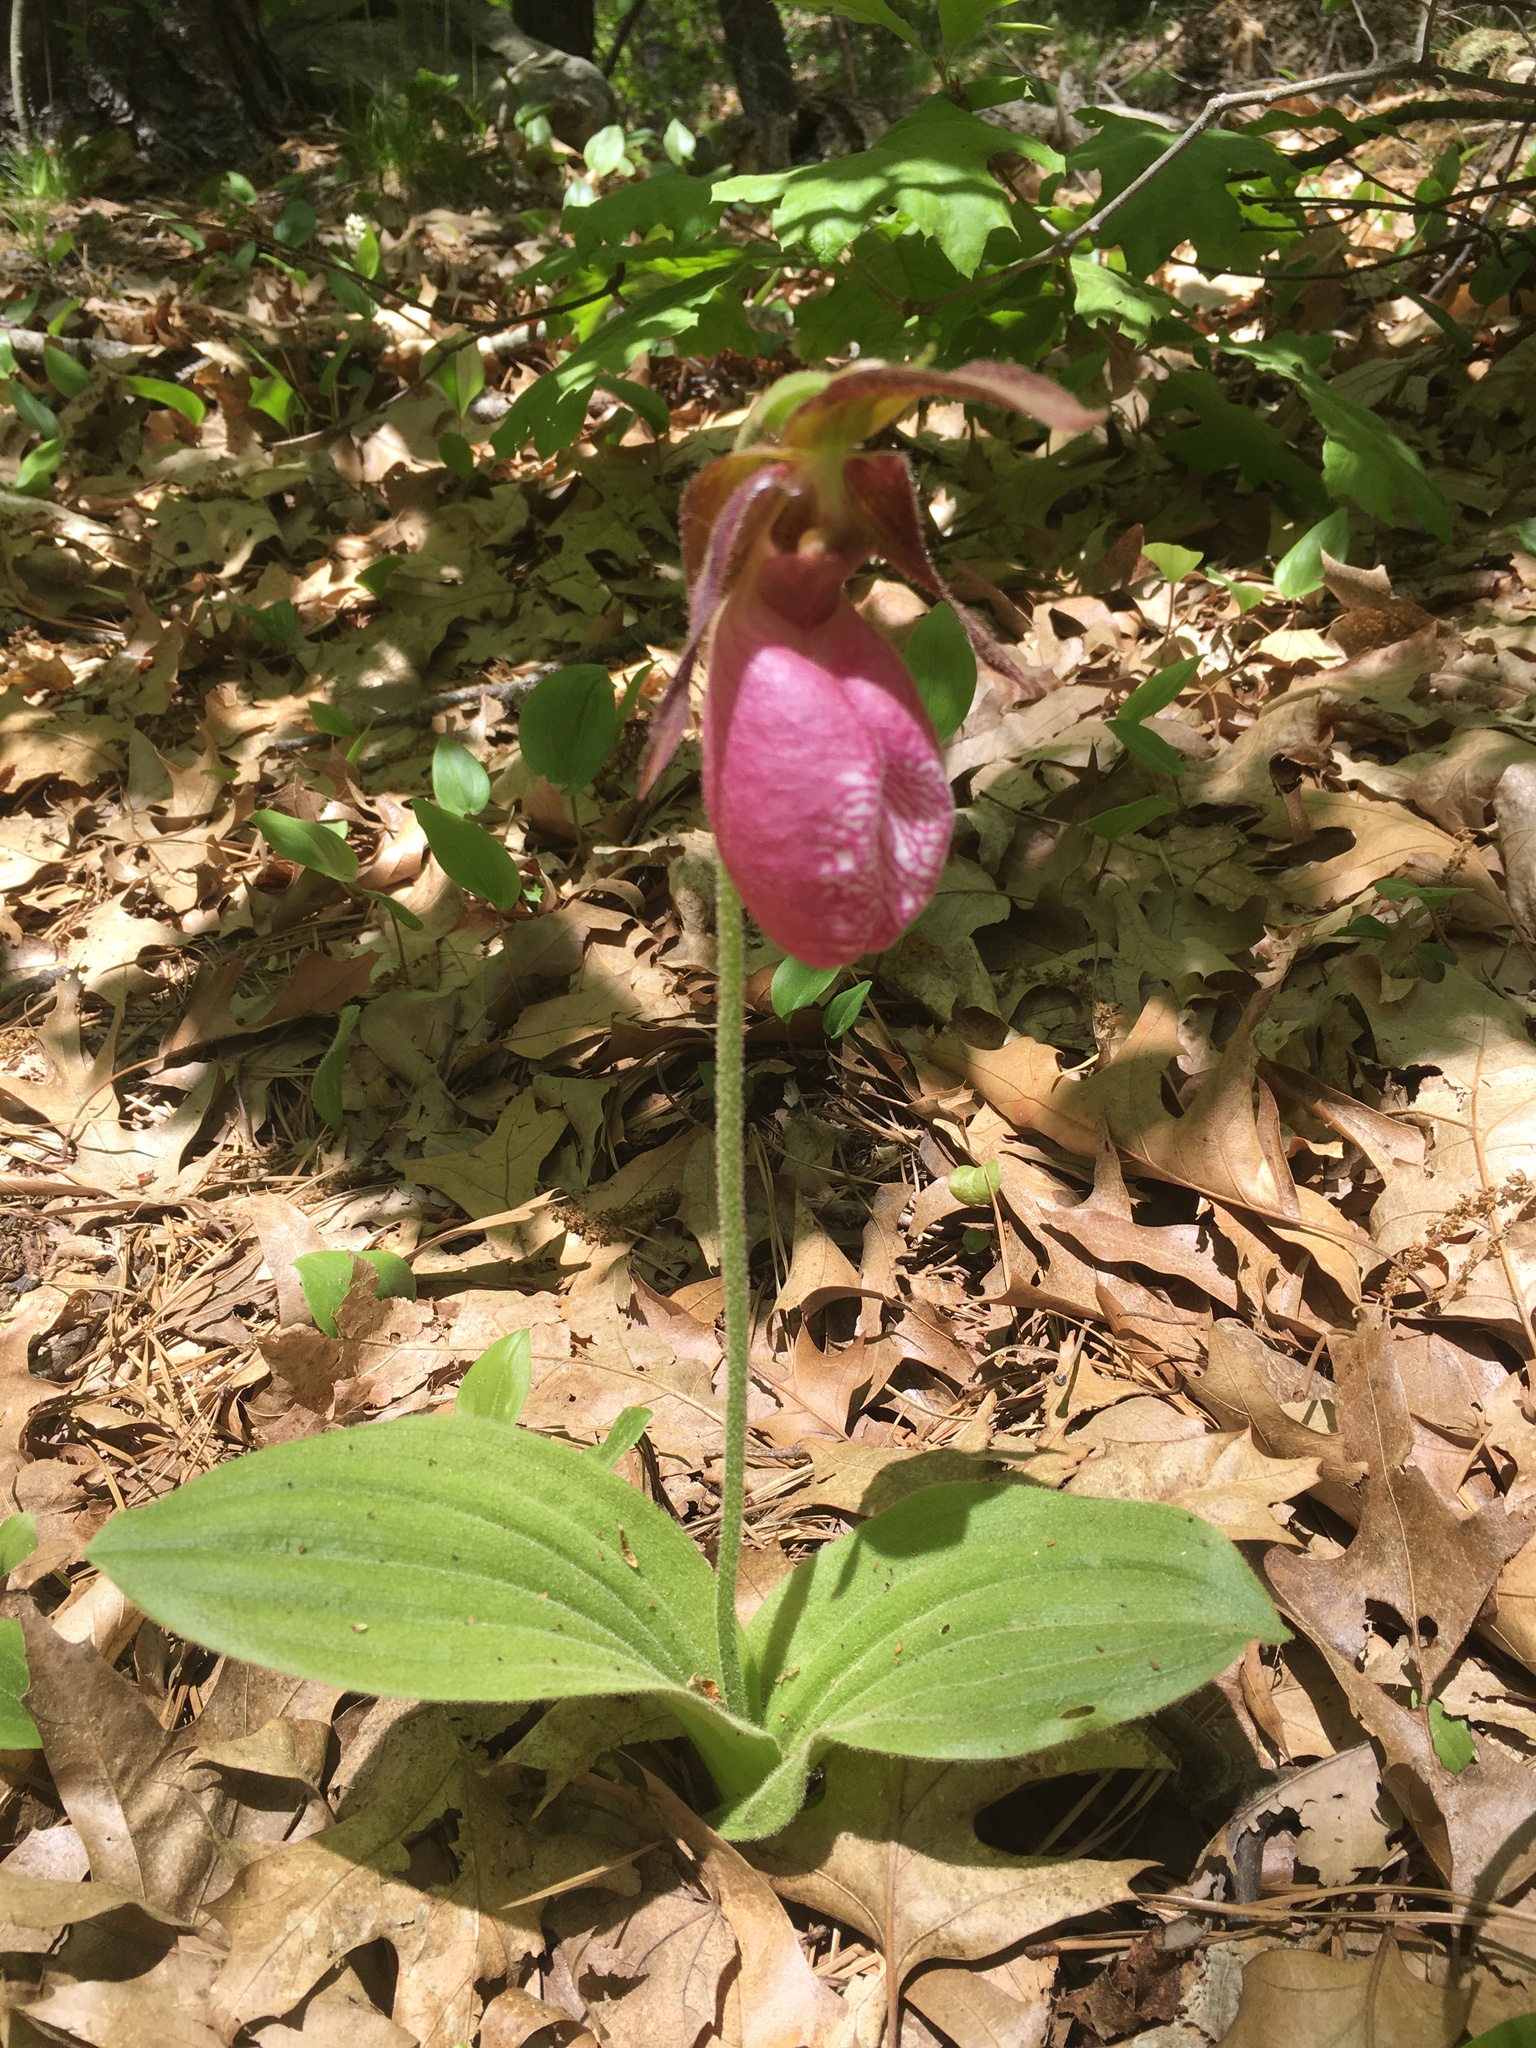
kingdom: Plantae
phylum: Tracheophyta
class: Liliopsida
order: Asparagales
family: Orchidaceae
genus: Cypripedium
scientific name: Cypripedium acaule
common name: Pink lady's-slipper
